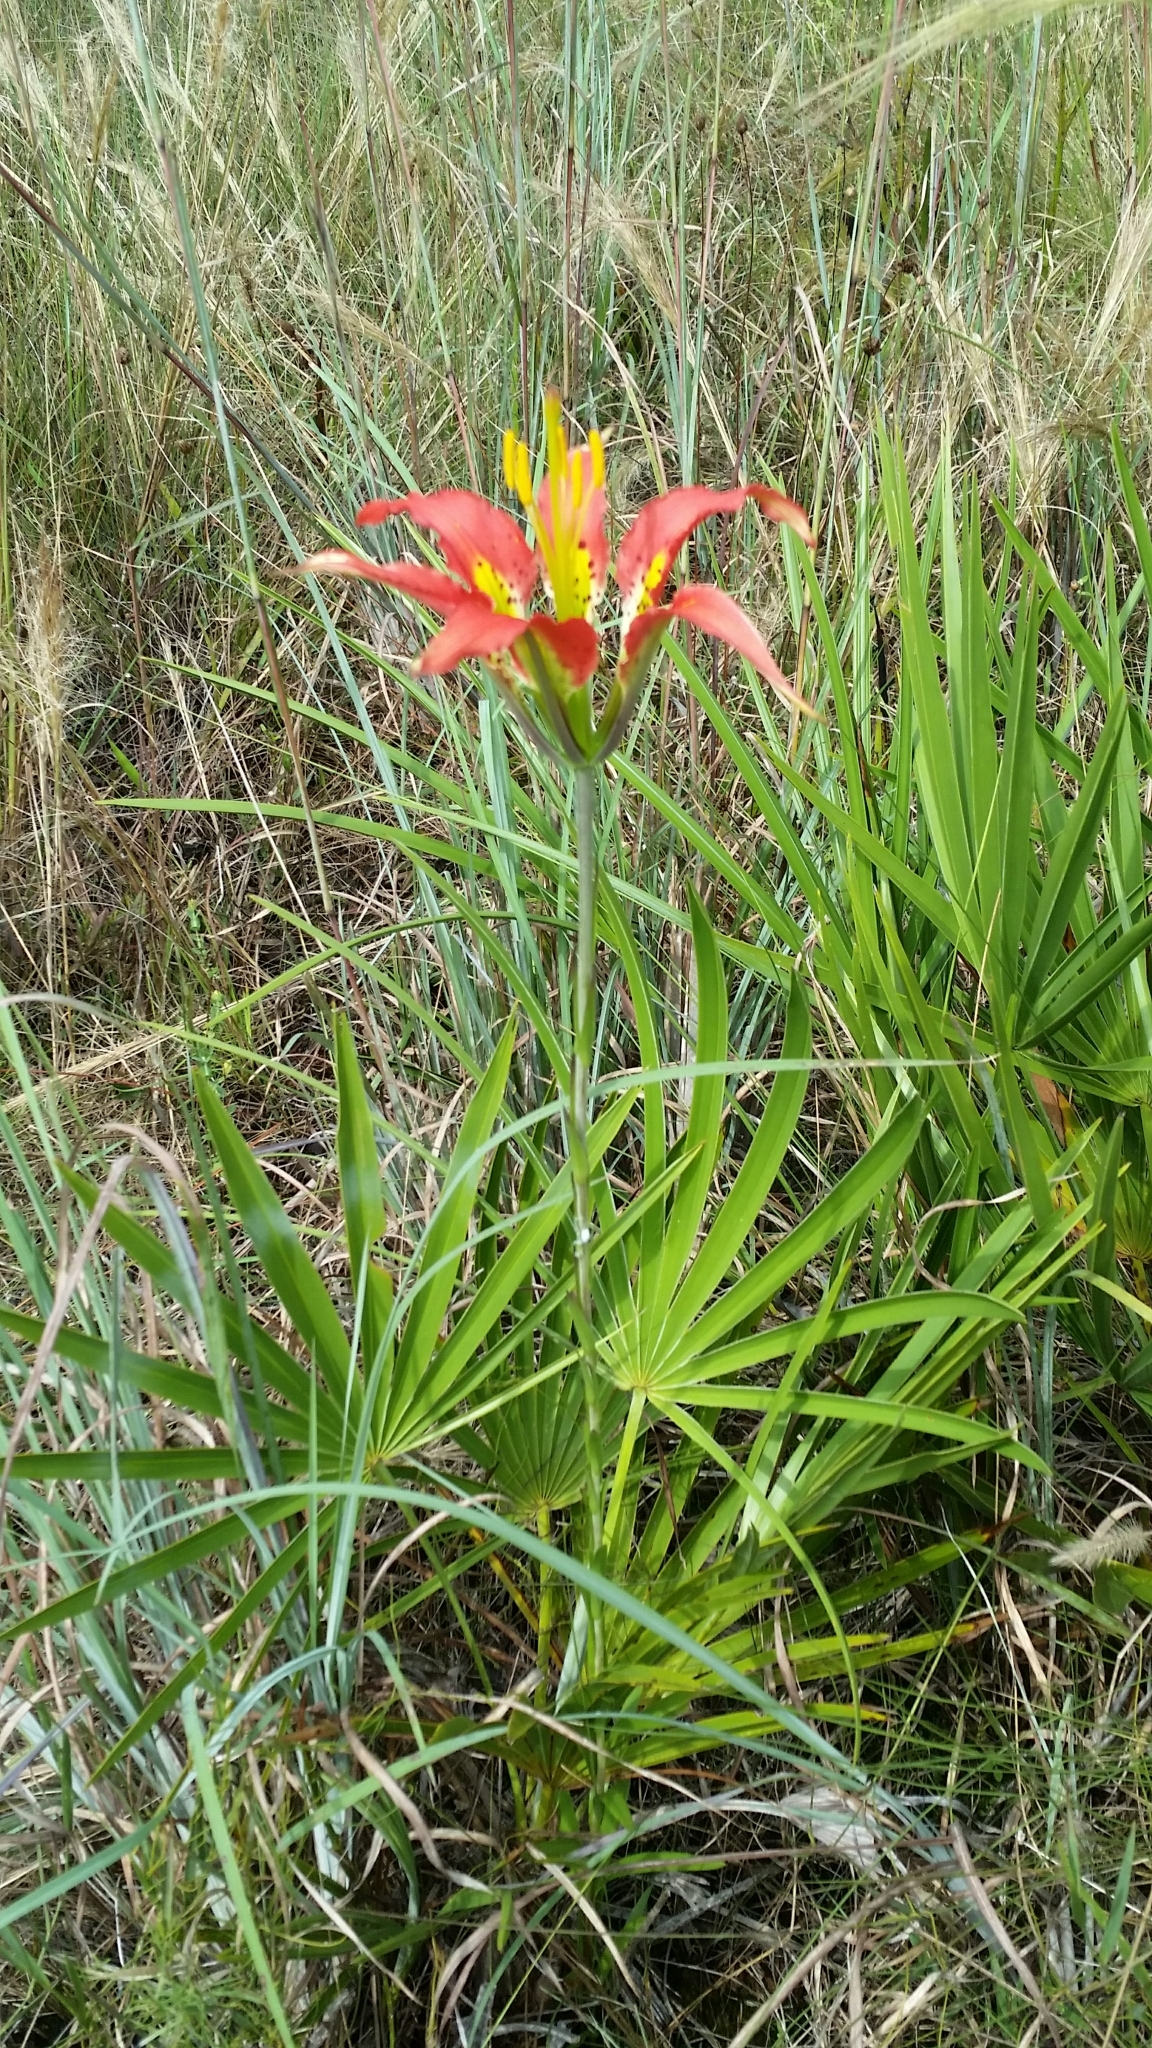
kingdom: Plantae
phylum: Tracheophyta
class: Liliopsida
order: Liliales
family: Liliaceae
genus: Lilium
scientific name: Lilium catesbaei
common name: Catesby's lily
